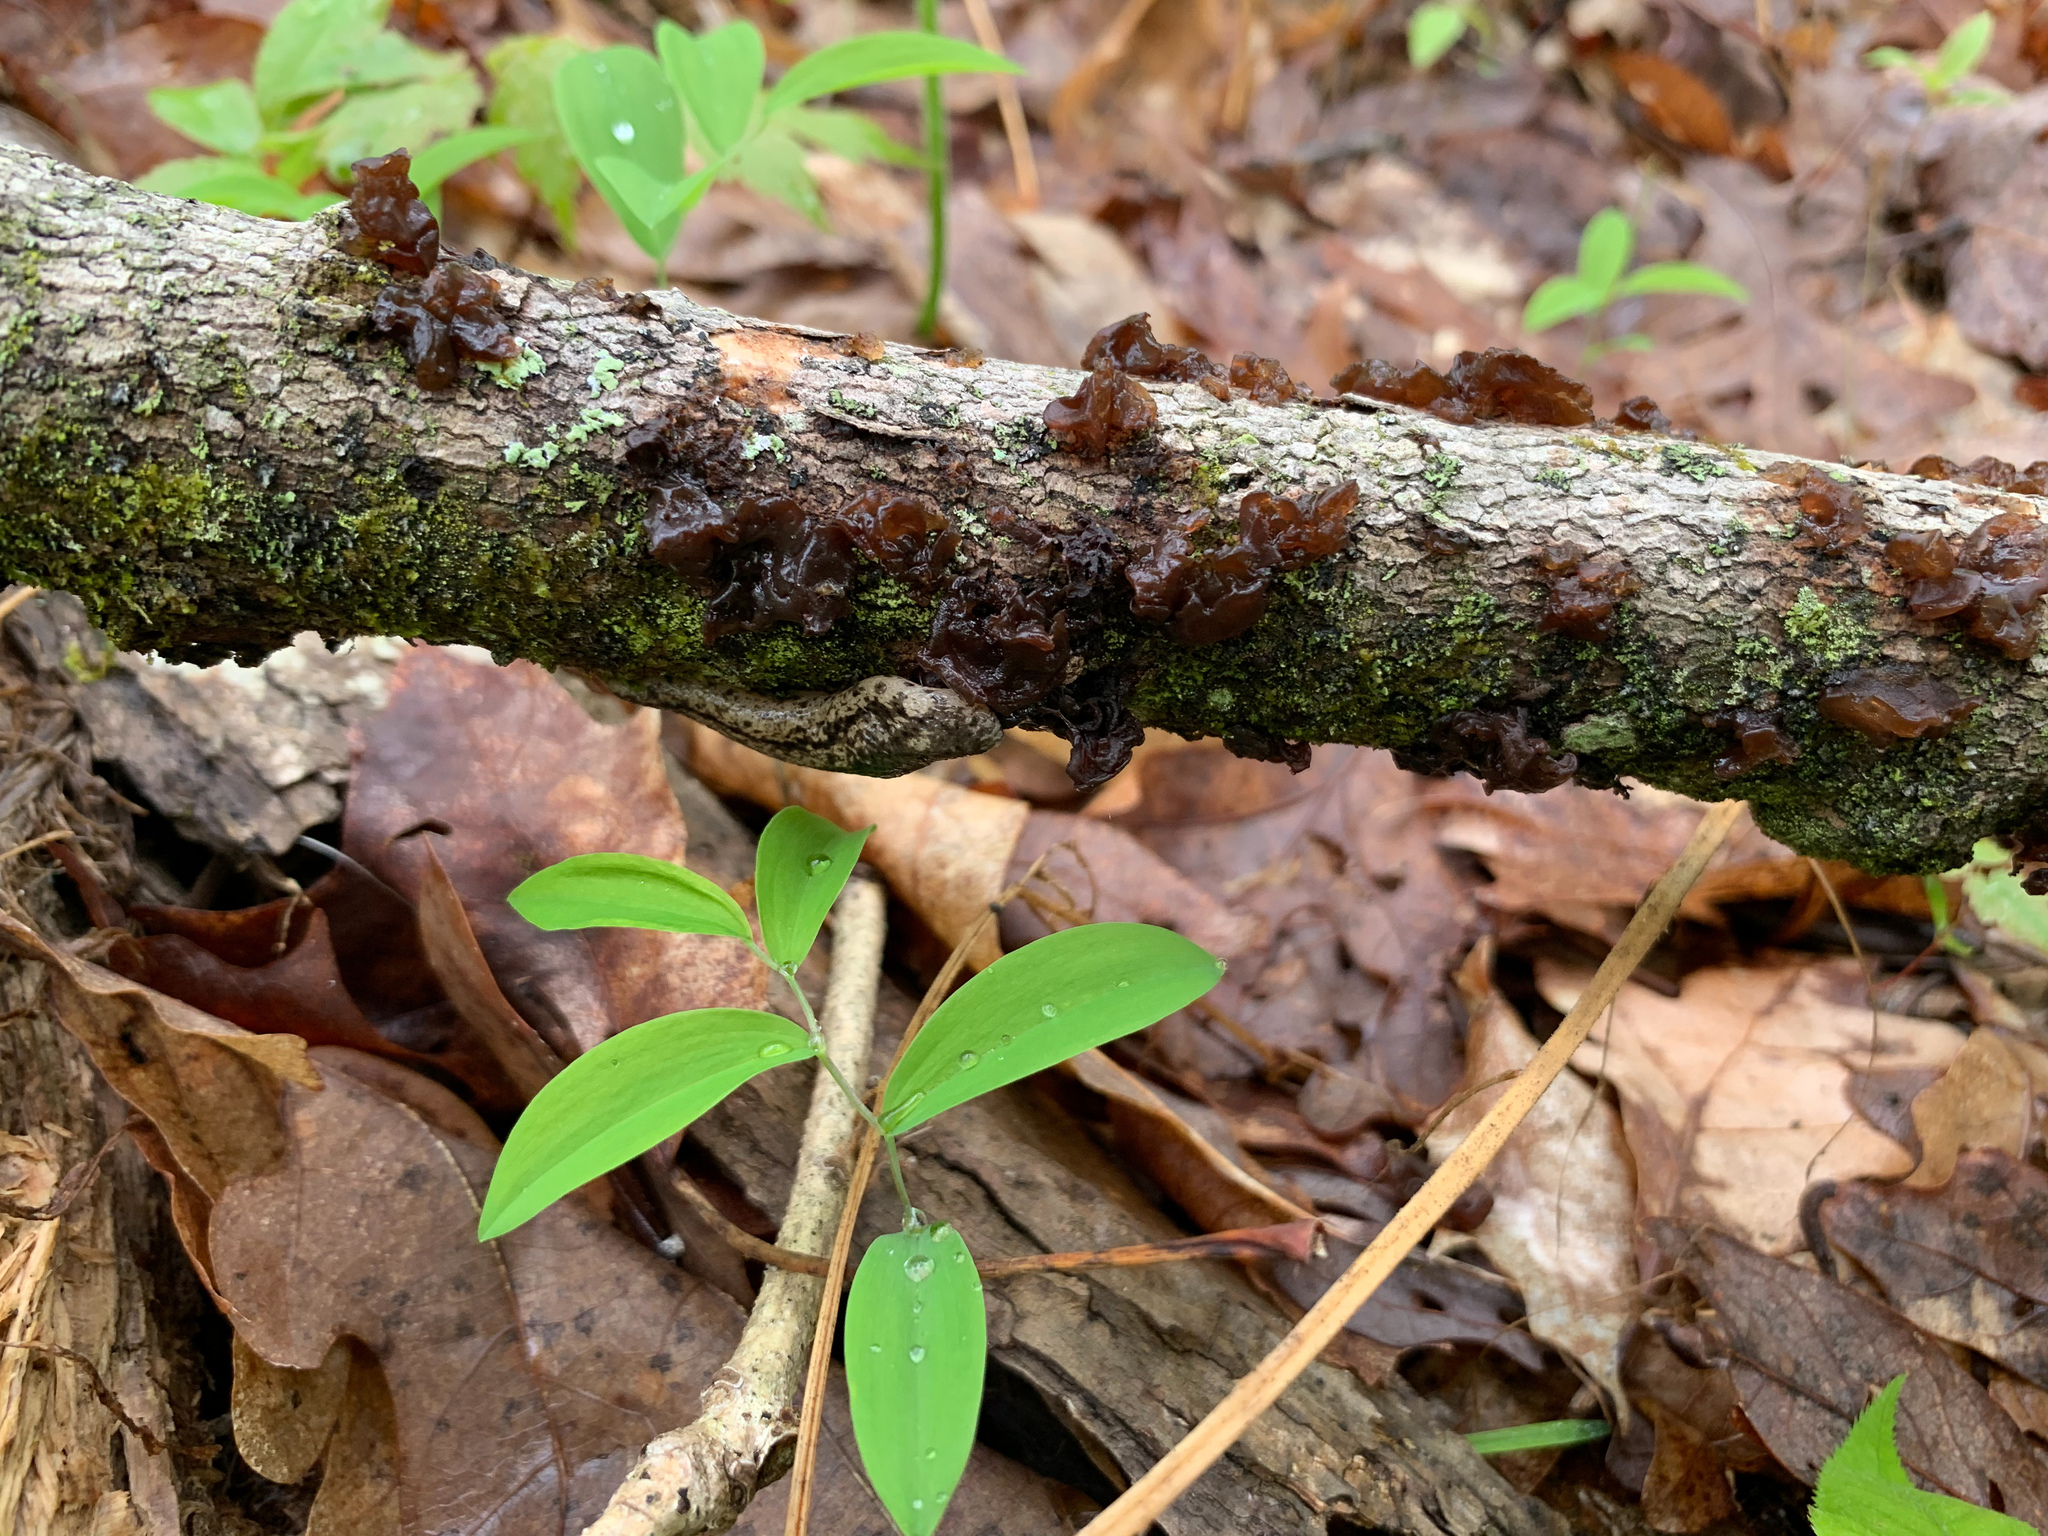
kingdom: Fungi
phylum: Basidiomycota
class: Agaricomycetes
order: Auriculariales
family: Auriculariaceae
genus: Exidia
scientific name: Exidia
